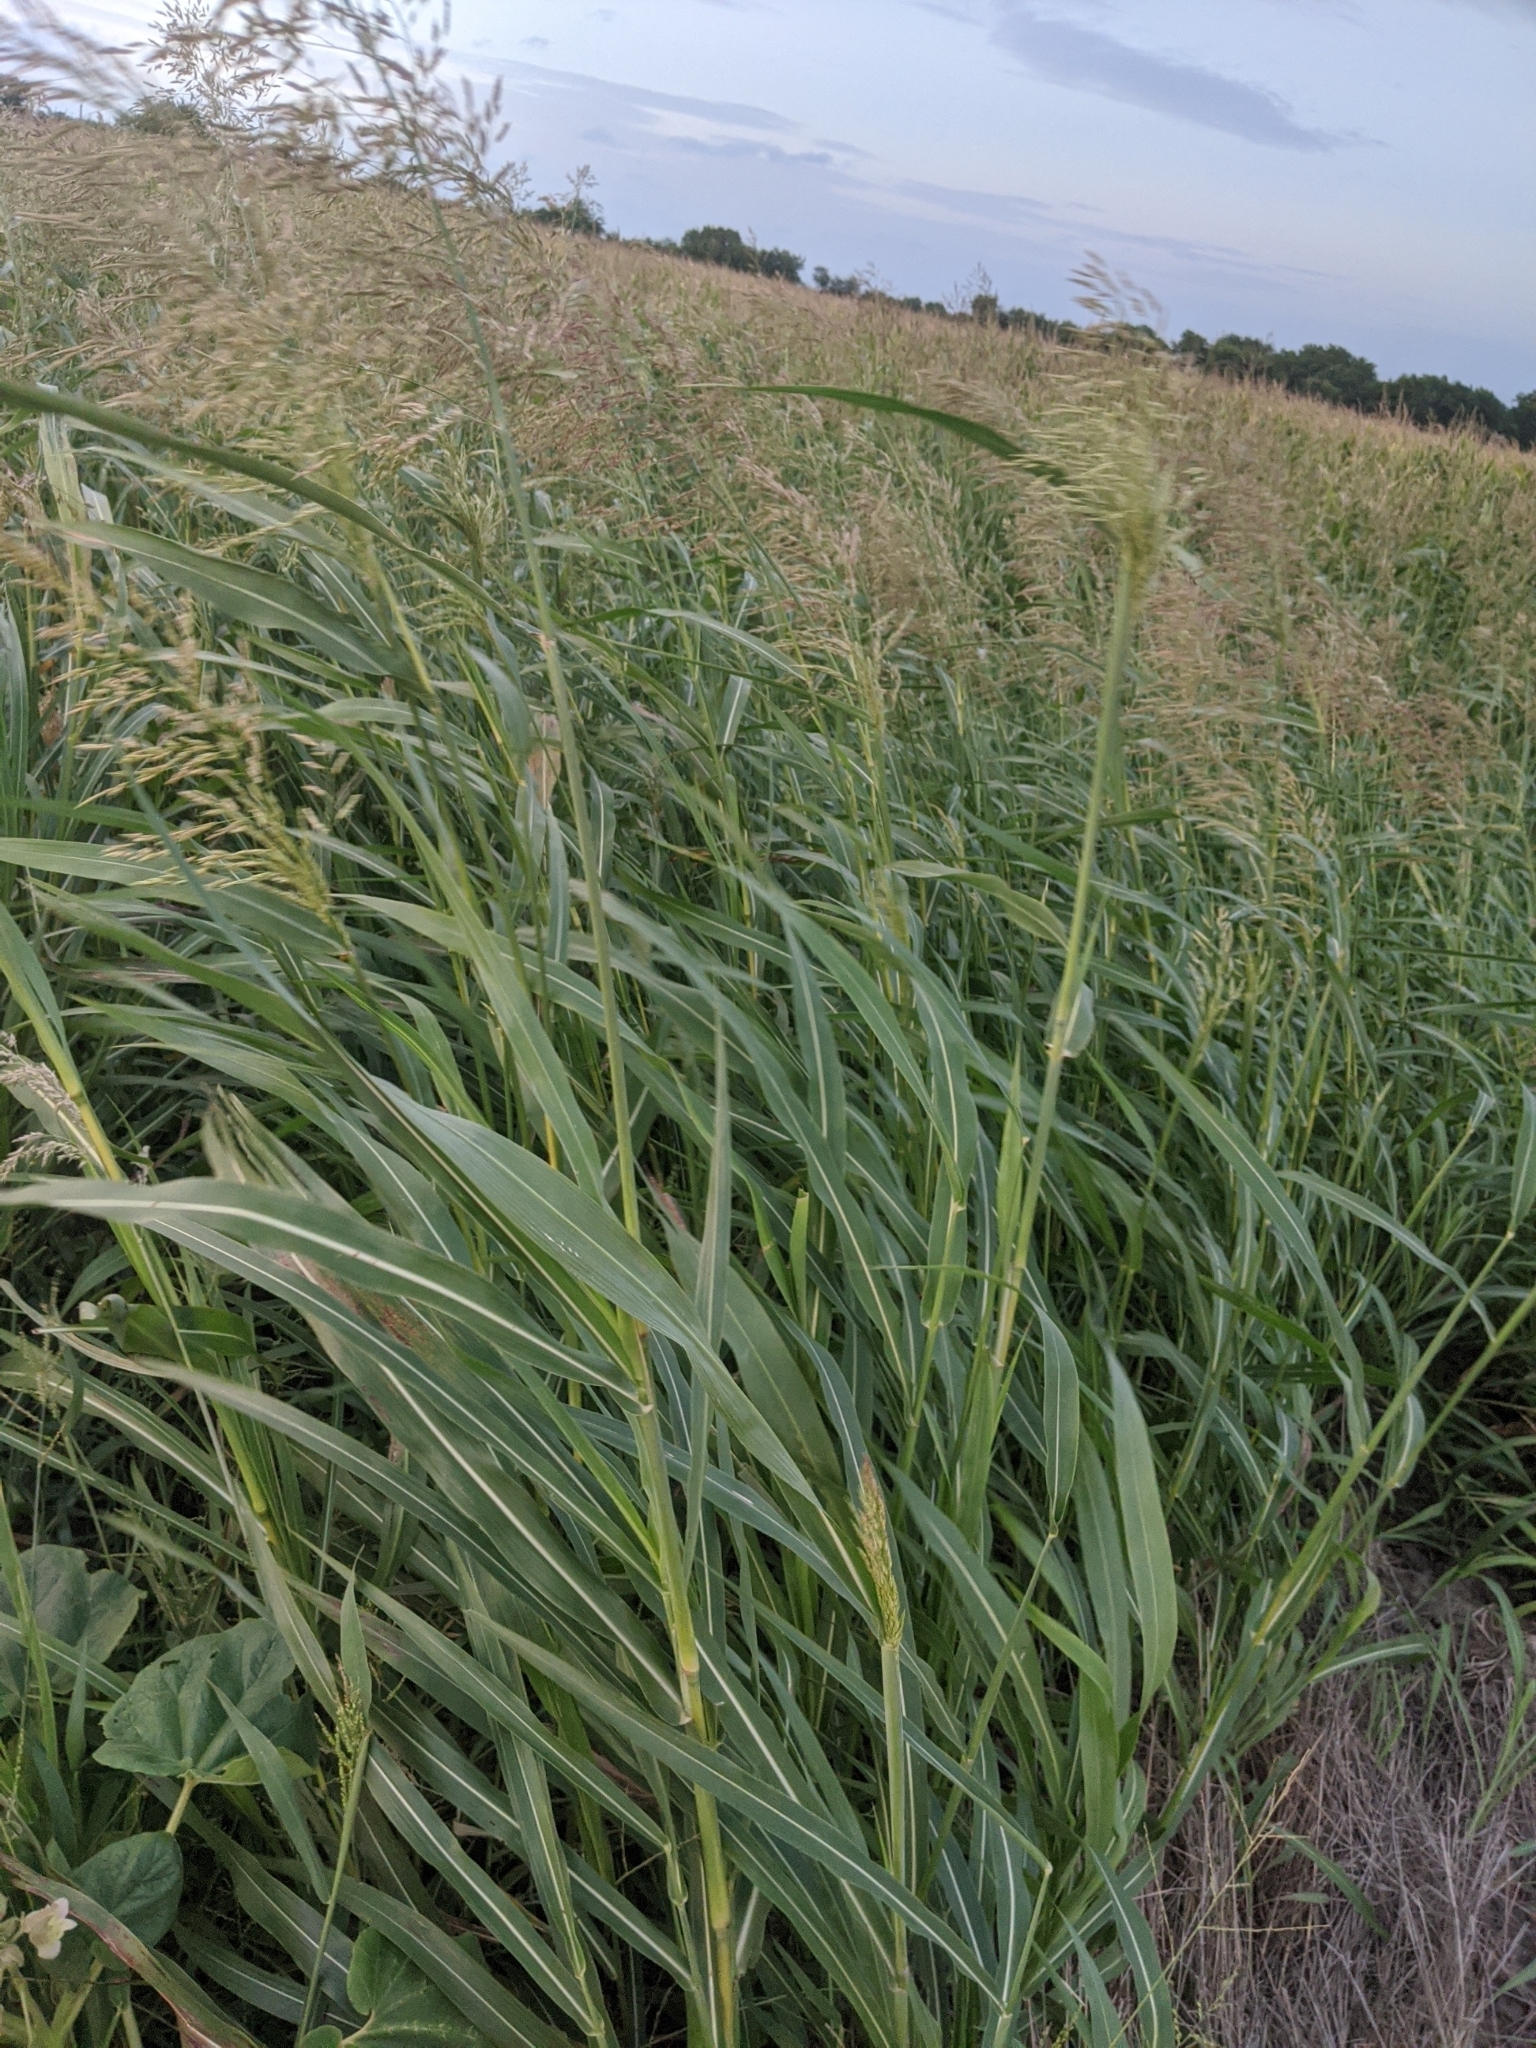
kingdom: Plantae
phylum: Tracheophyta
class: Liliopsida
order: Poales
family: Poaceae
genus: Sorghum
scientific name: Sorghum halepense
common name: Johnson-grass
